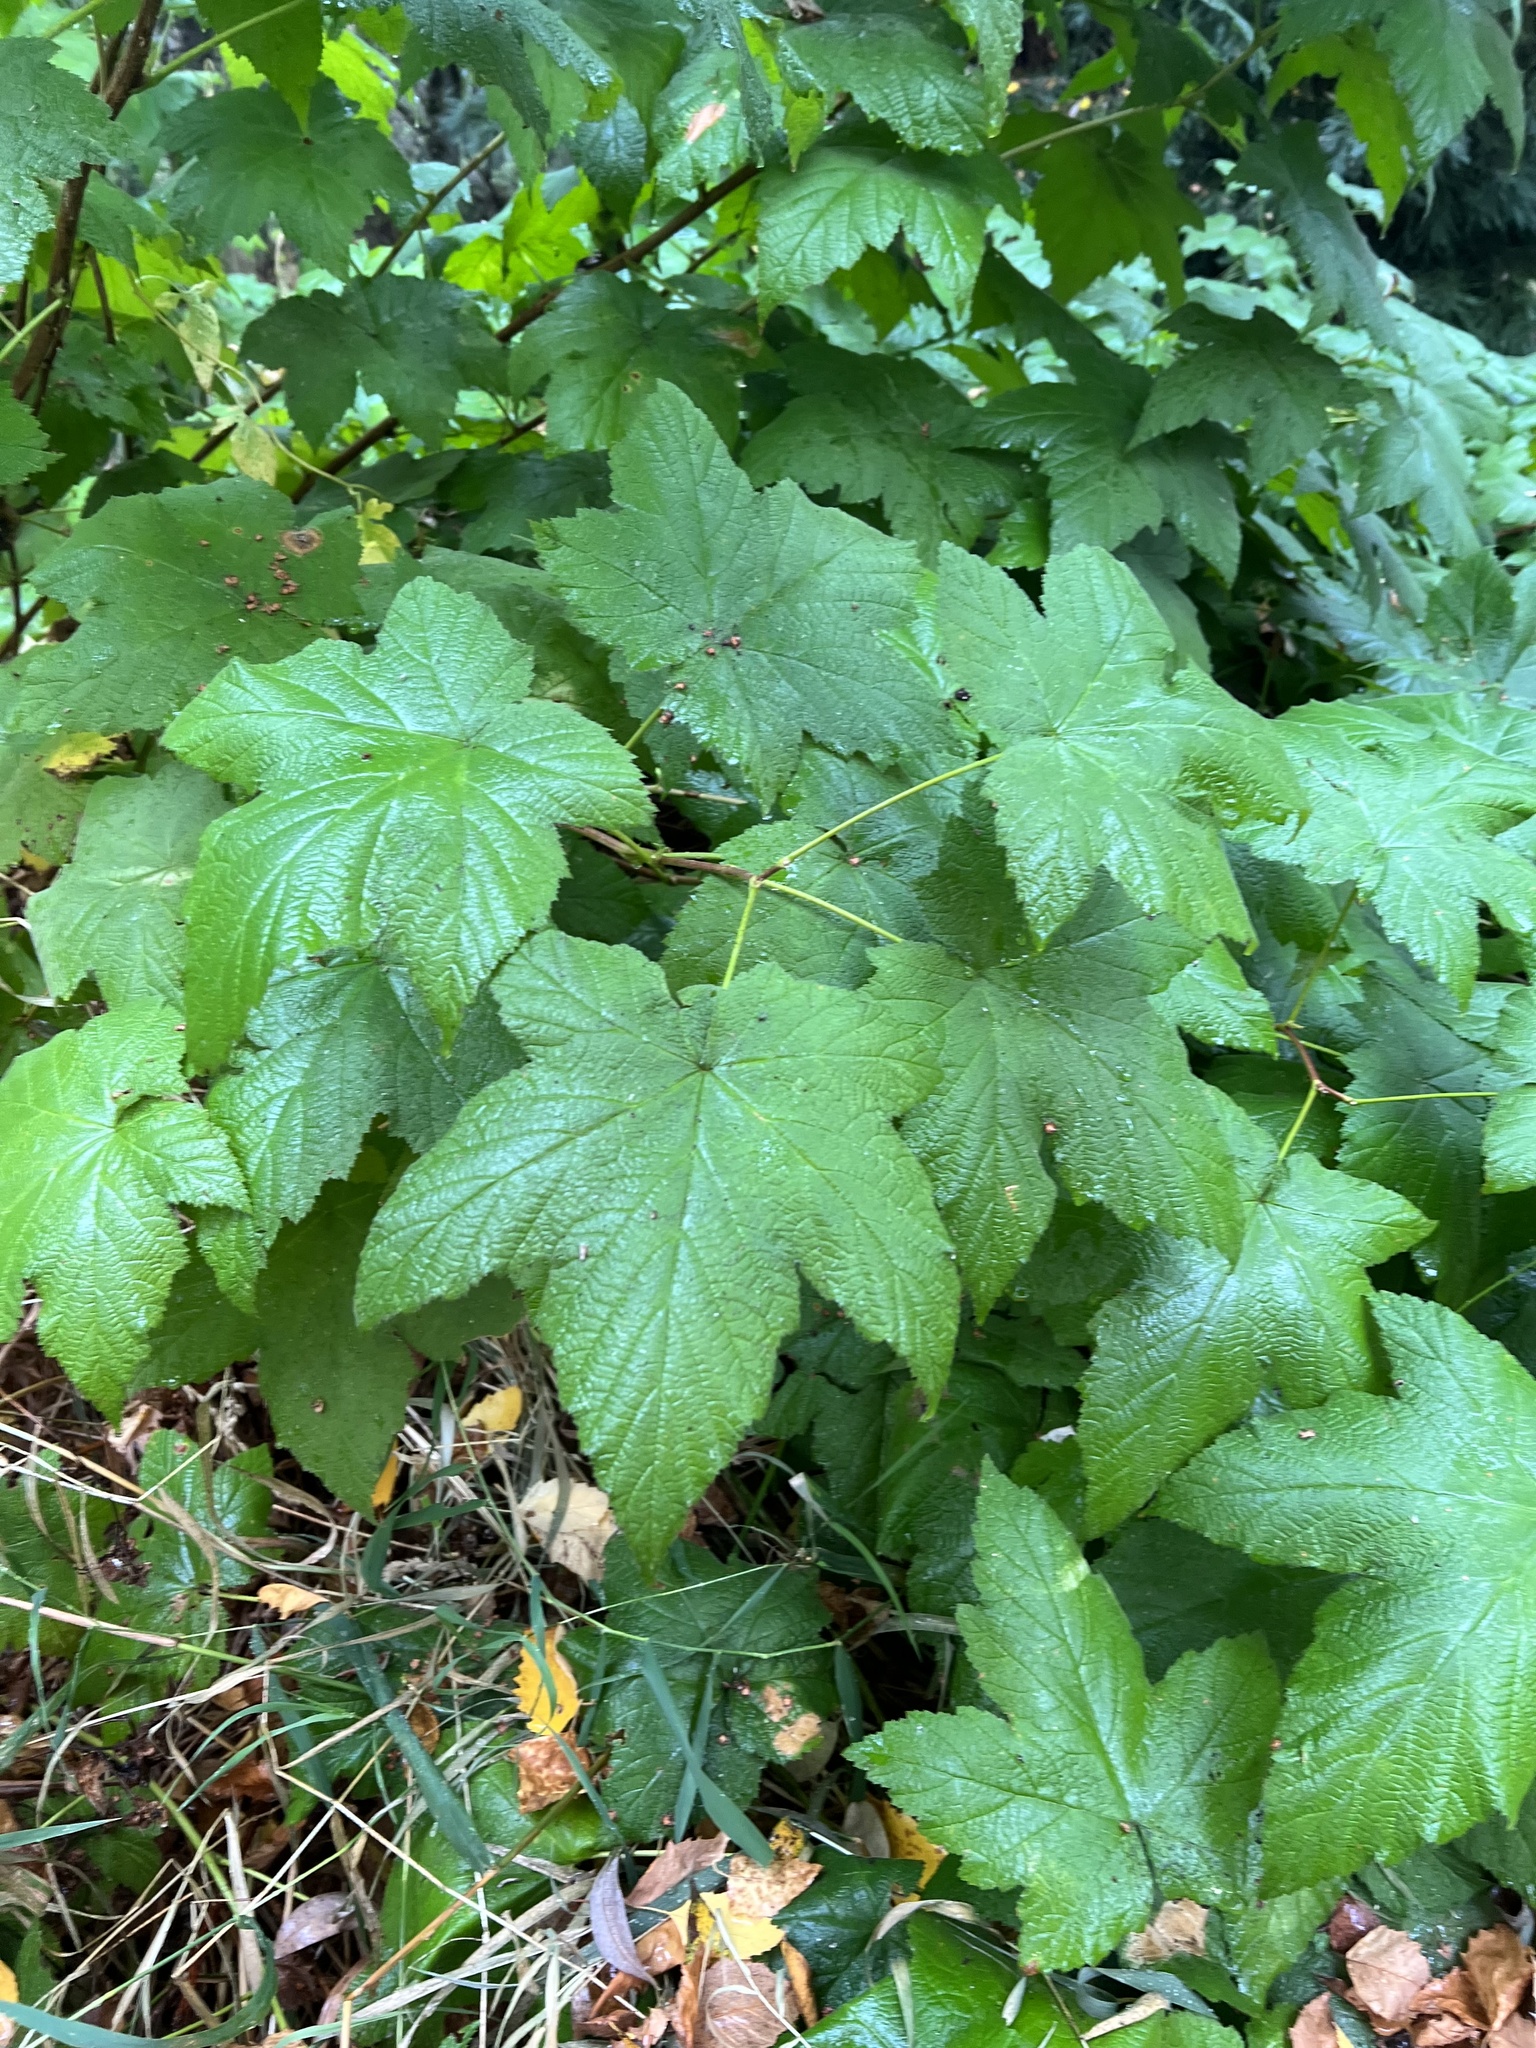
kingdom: Plantae
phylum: Tracheophyta
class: Magnoliopsida
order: Rosales
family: Rosaceae
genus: Rubus
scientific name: Rubus parviflorus
